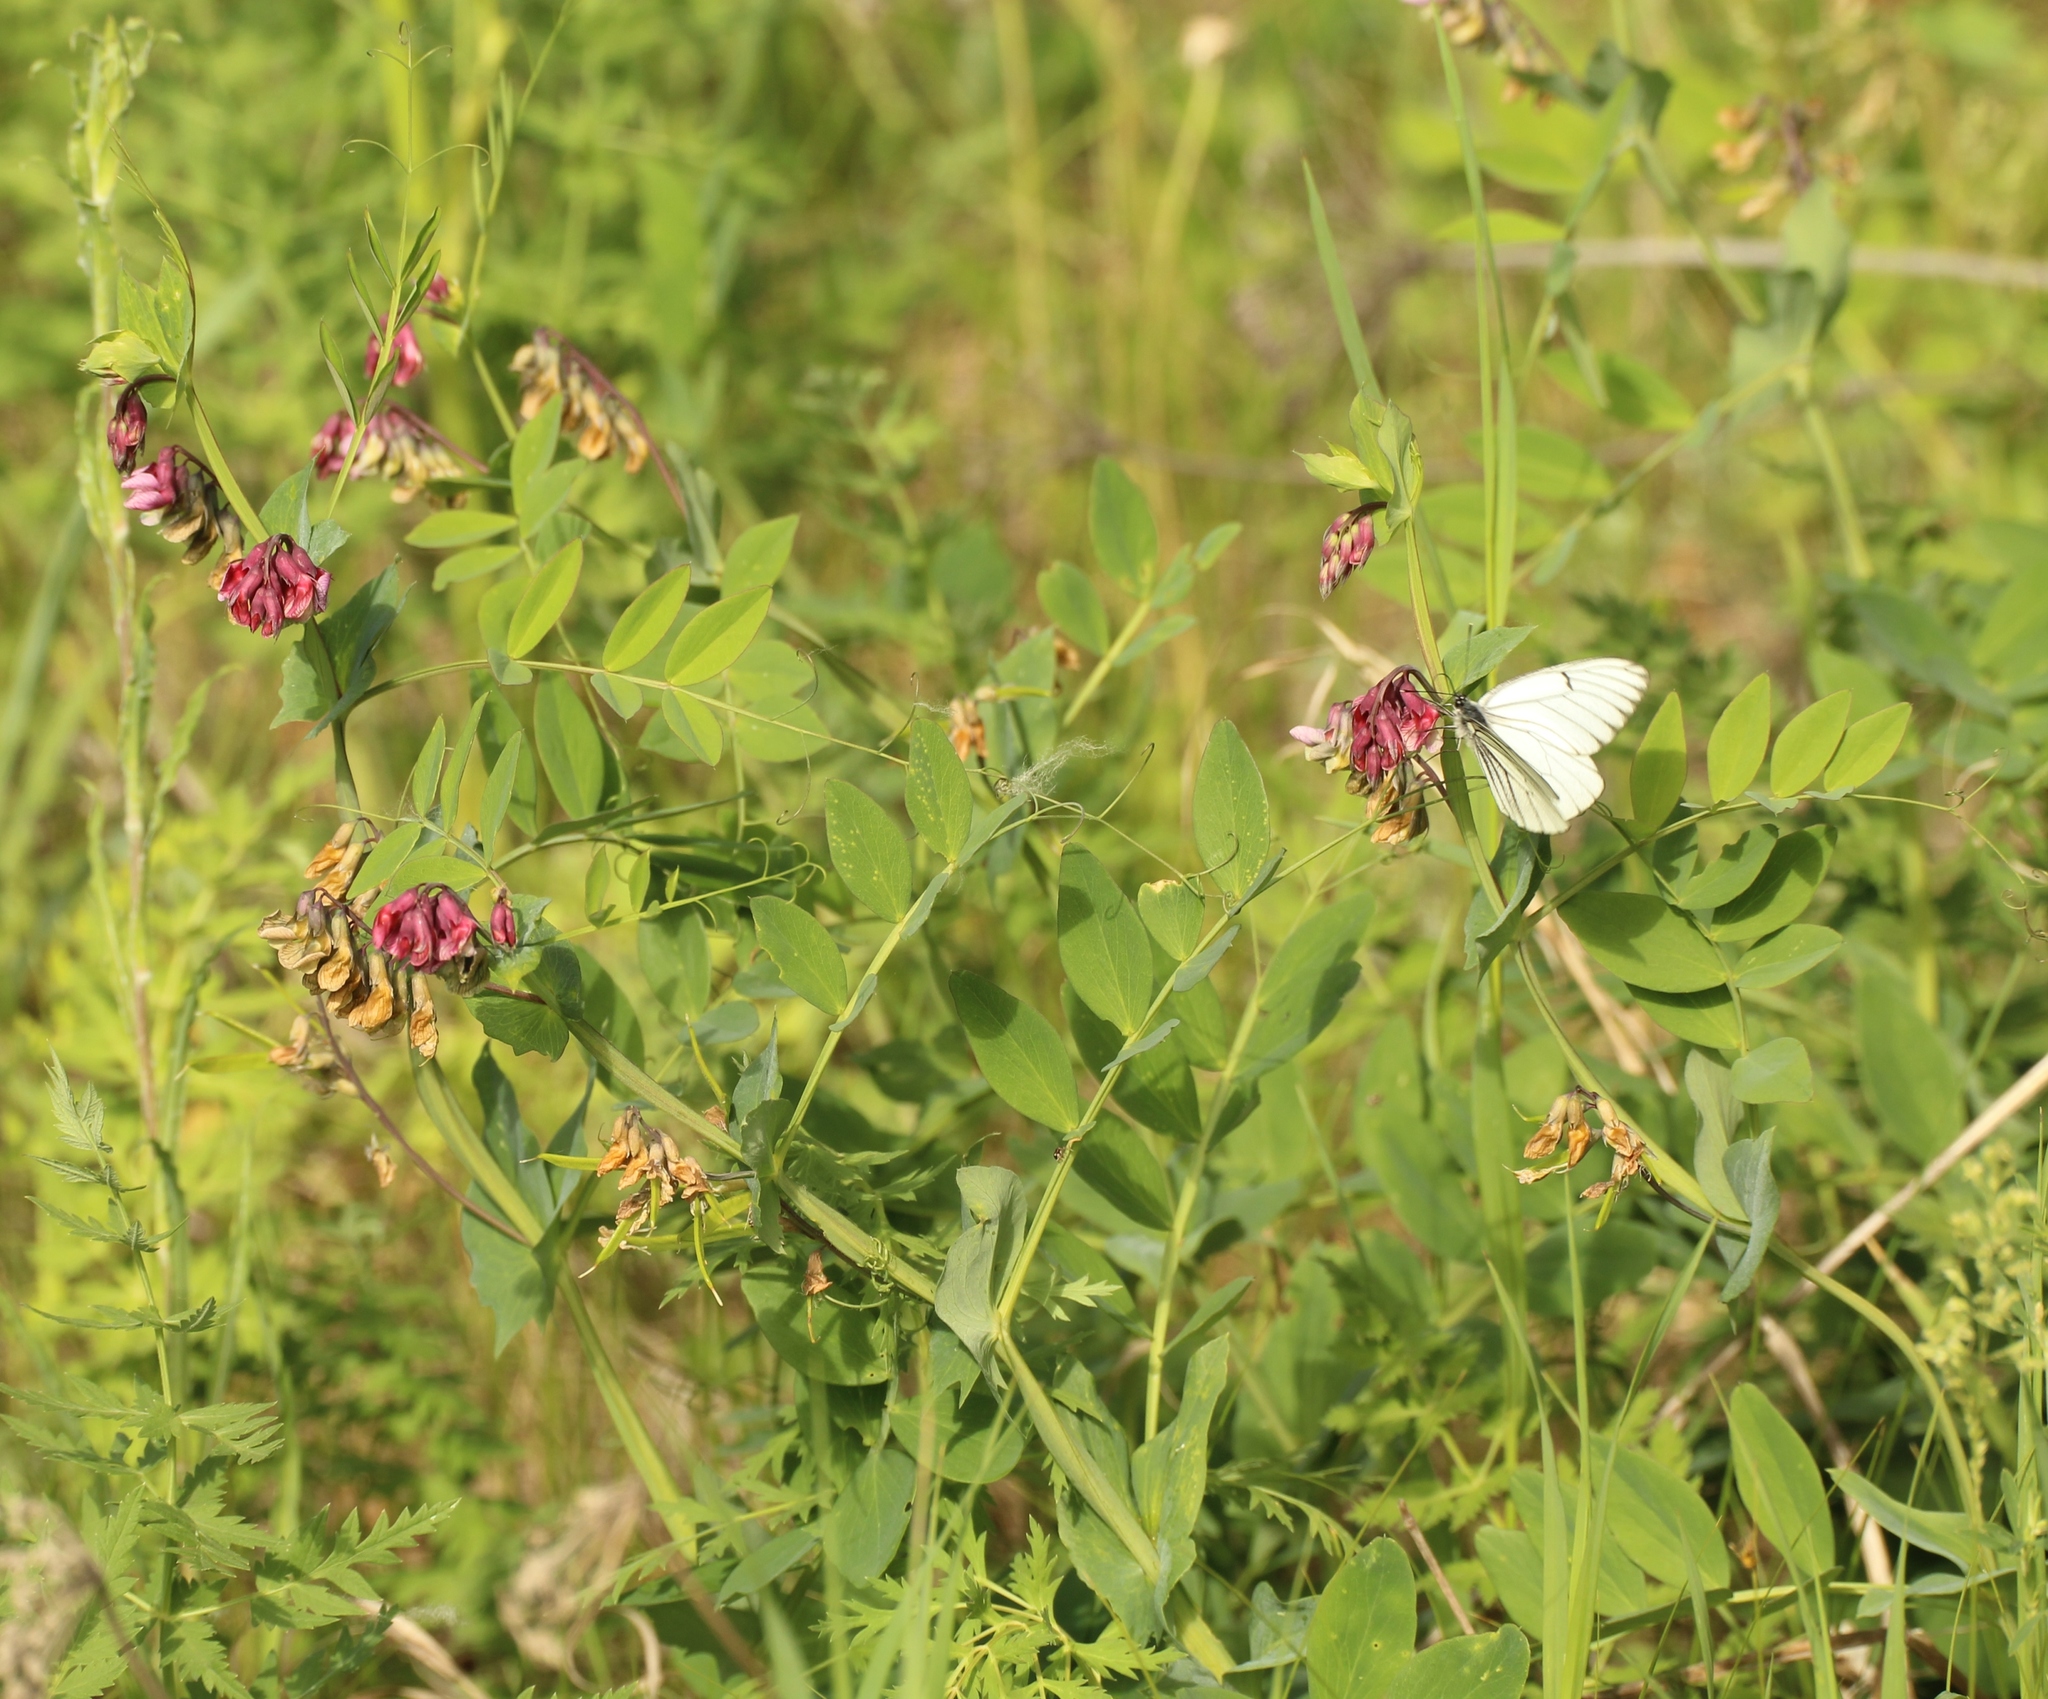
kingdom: Plantae
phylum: Tracheophyta
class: Magnoliopsida
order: Fabales
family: Fabaceae
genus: Lathyrus
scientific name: Lathyrus pisiformis
